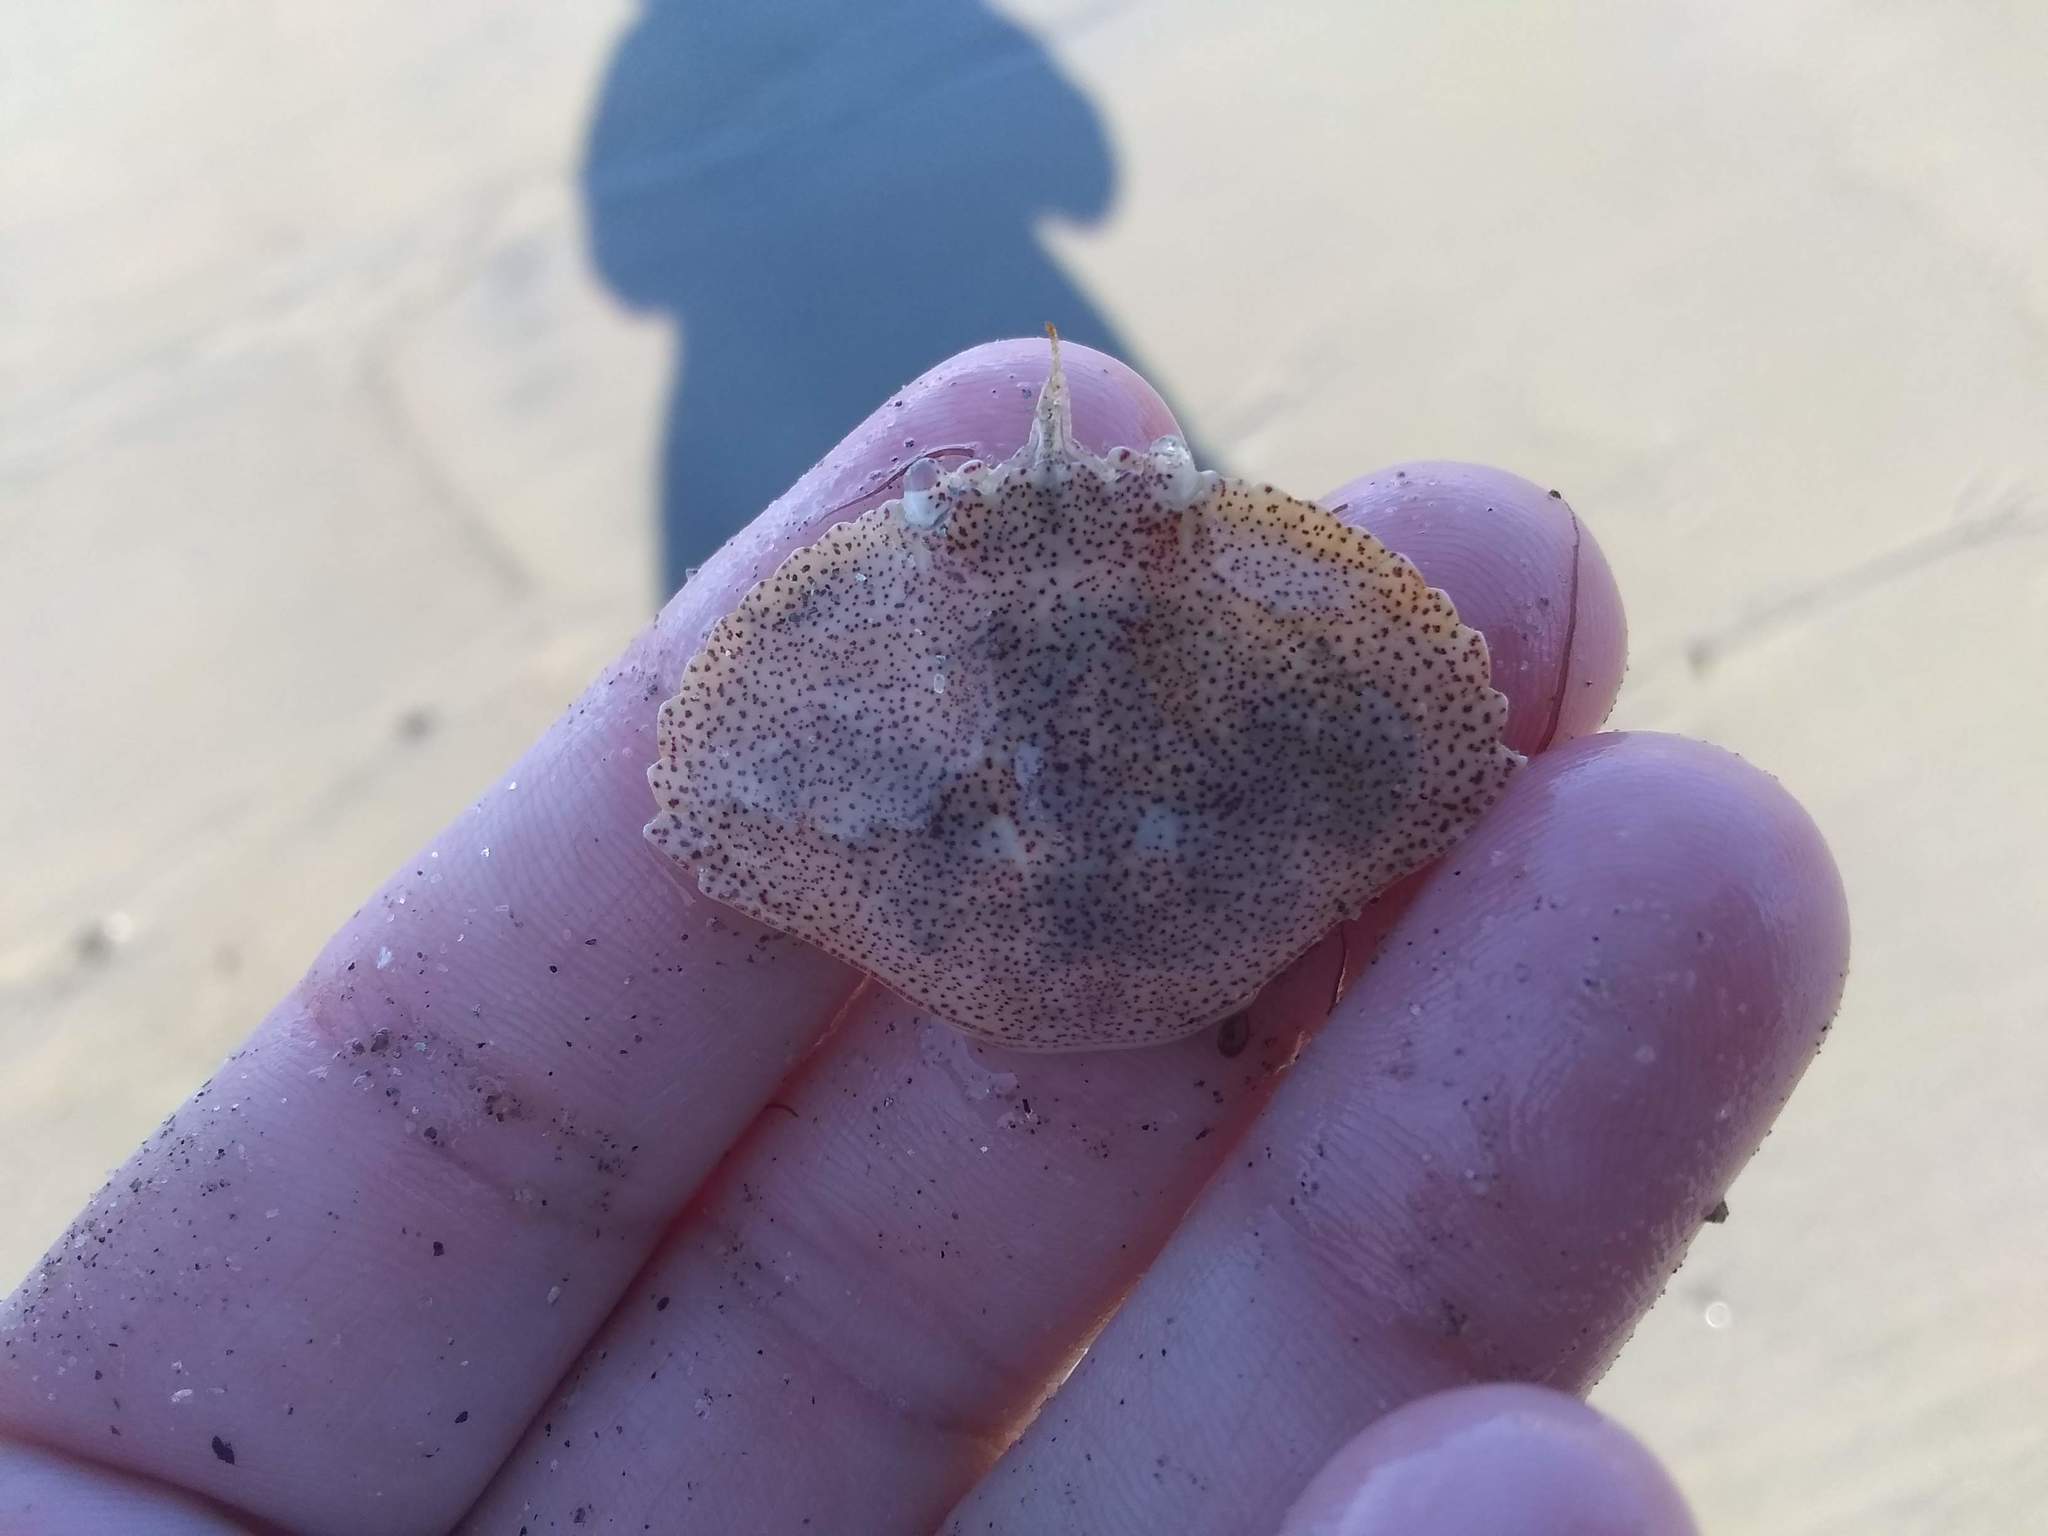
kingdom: Animalia
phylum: Arthropoda
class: Malacostraca
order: Decapoda
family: Cancridae
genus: Cancer
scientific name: Cancer irroratus
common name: Atlantic rock crab
